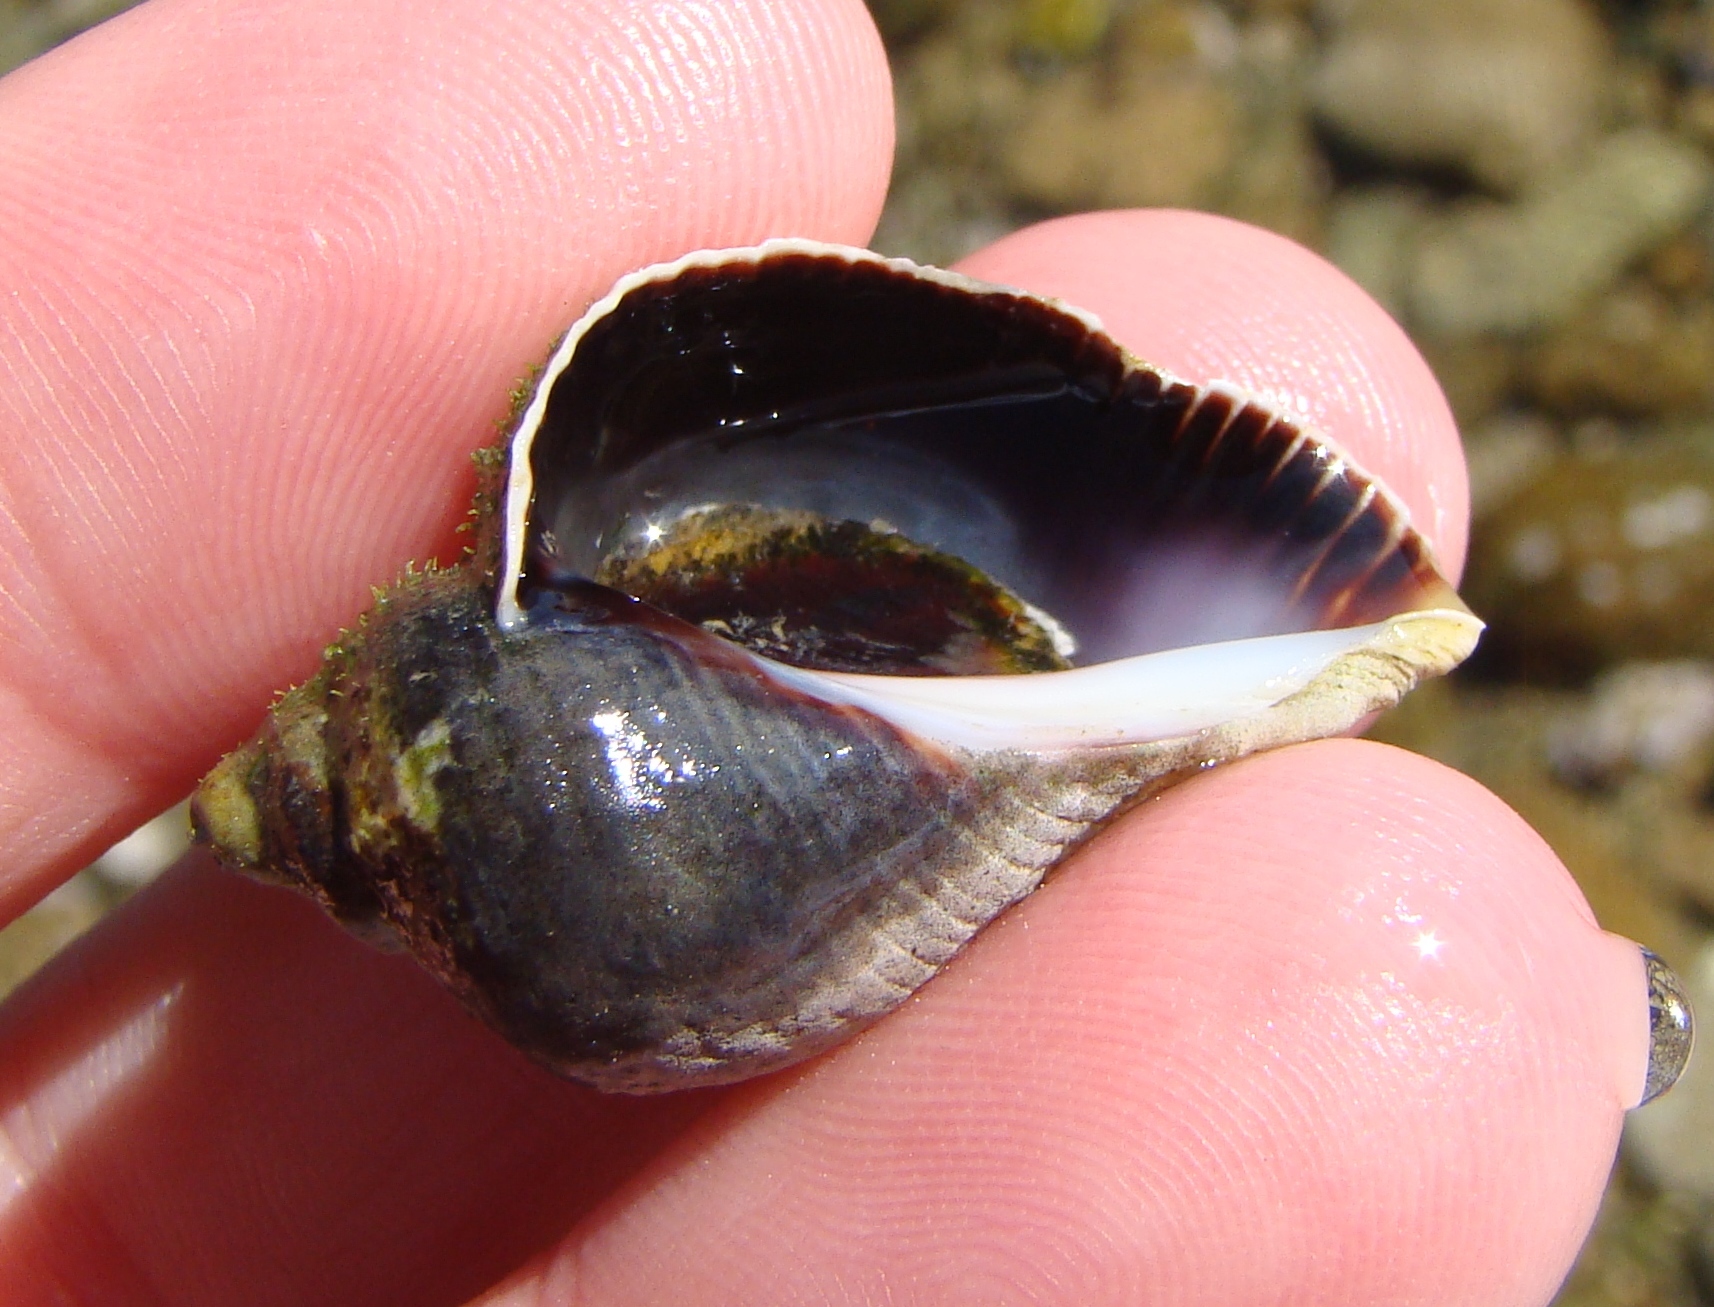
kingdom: Animalia
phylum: Mollusca
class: Gastropoda
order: Neogastropoda
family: Muricidae
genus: Haustrum
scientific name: Haustrum haustorium
